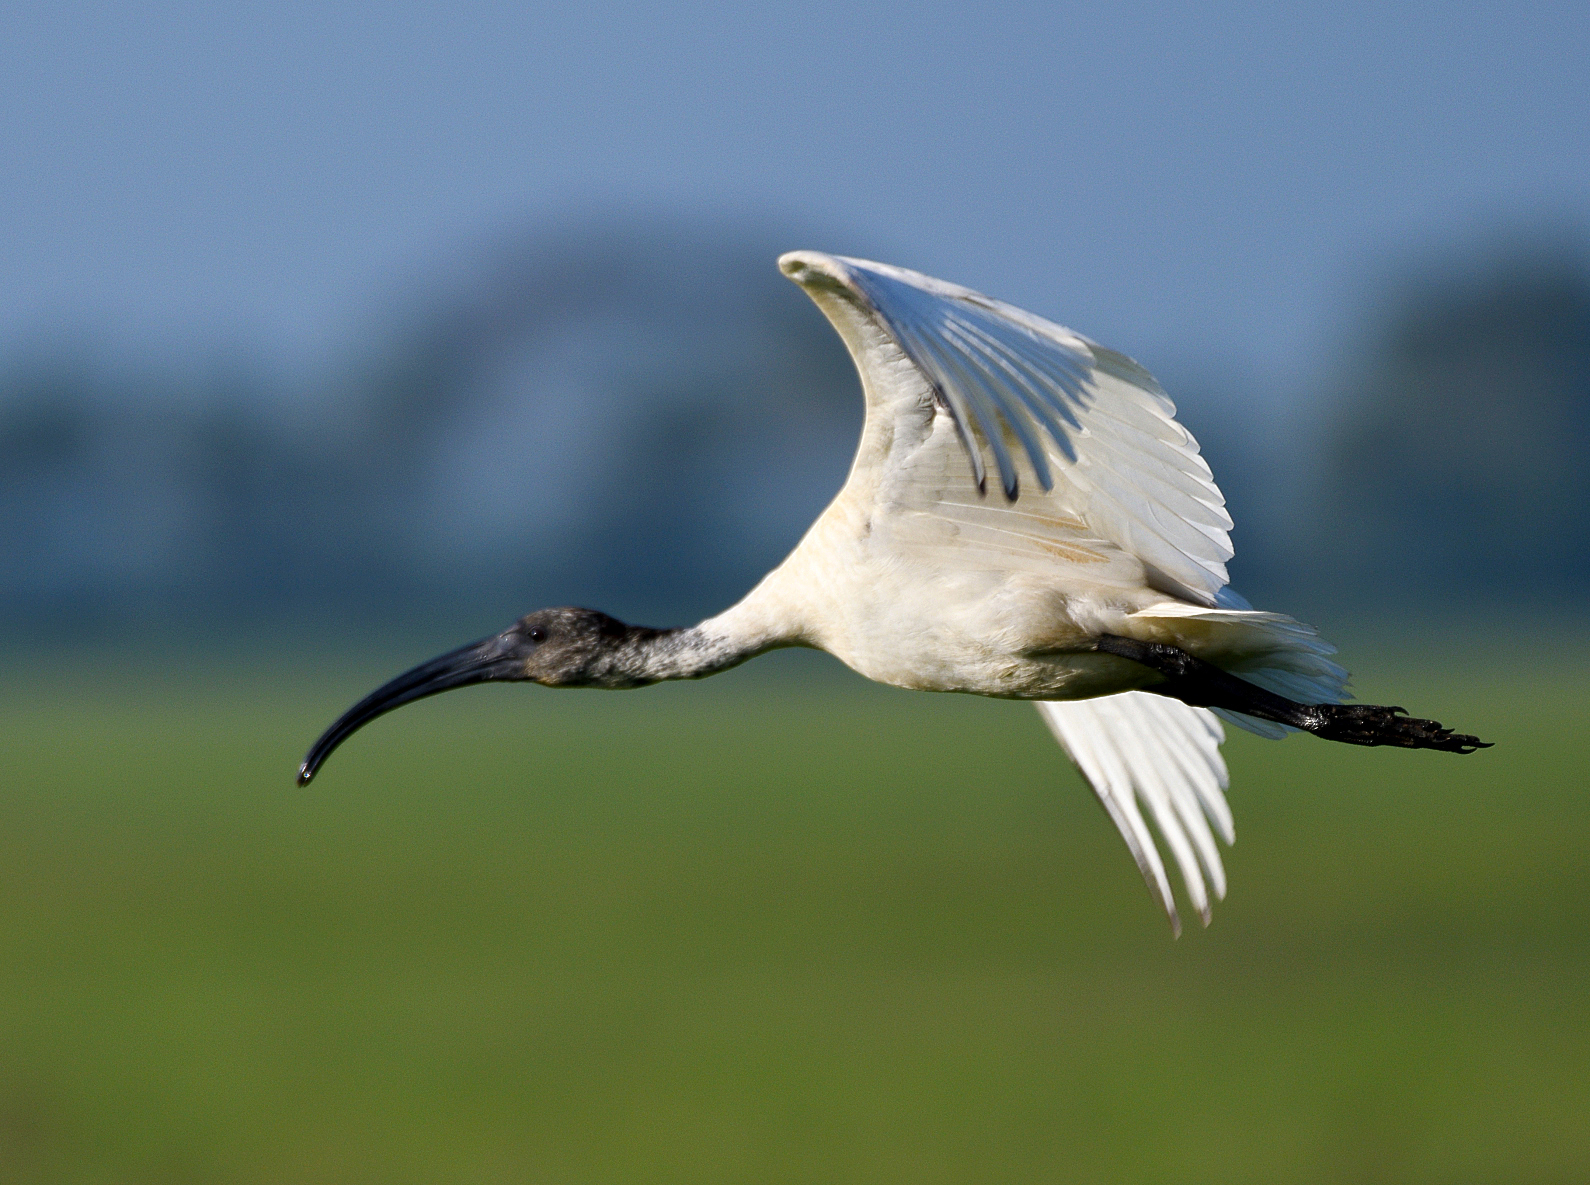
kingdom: Animalia
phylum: Chordata
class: Aves
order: Pelecaniformes
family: Threskiornithidae
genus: Threskiornis
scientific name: Threskiornis melanocephalus
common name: Black-headed ibis
